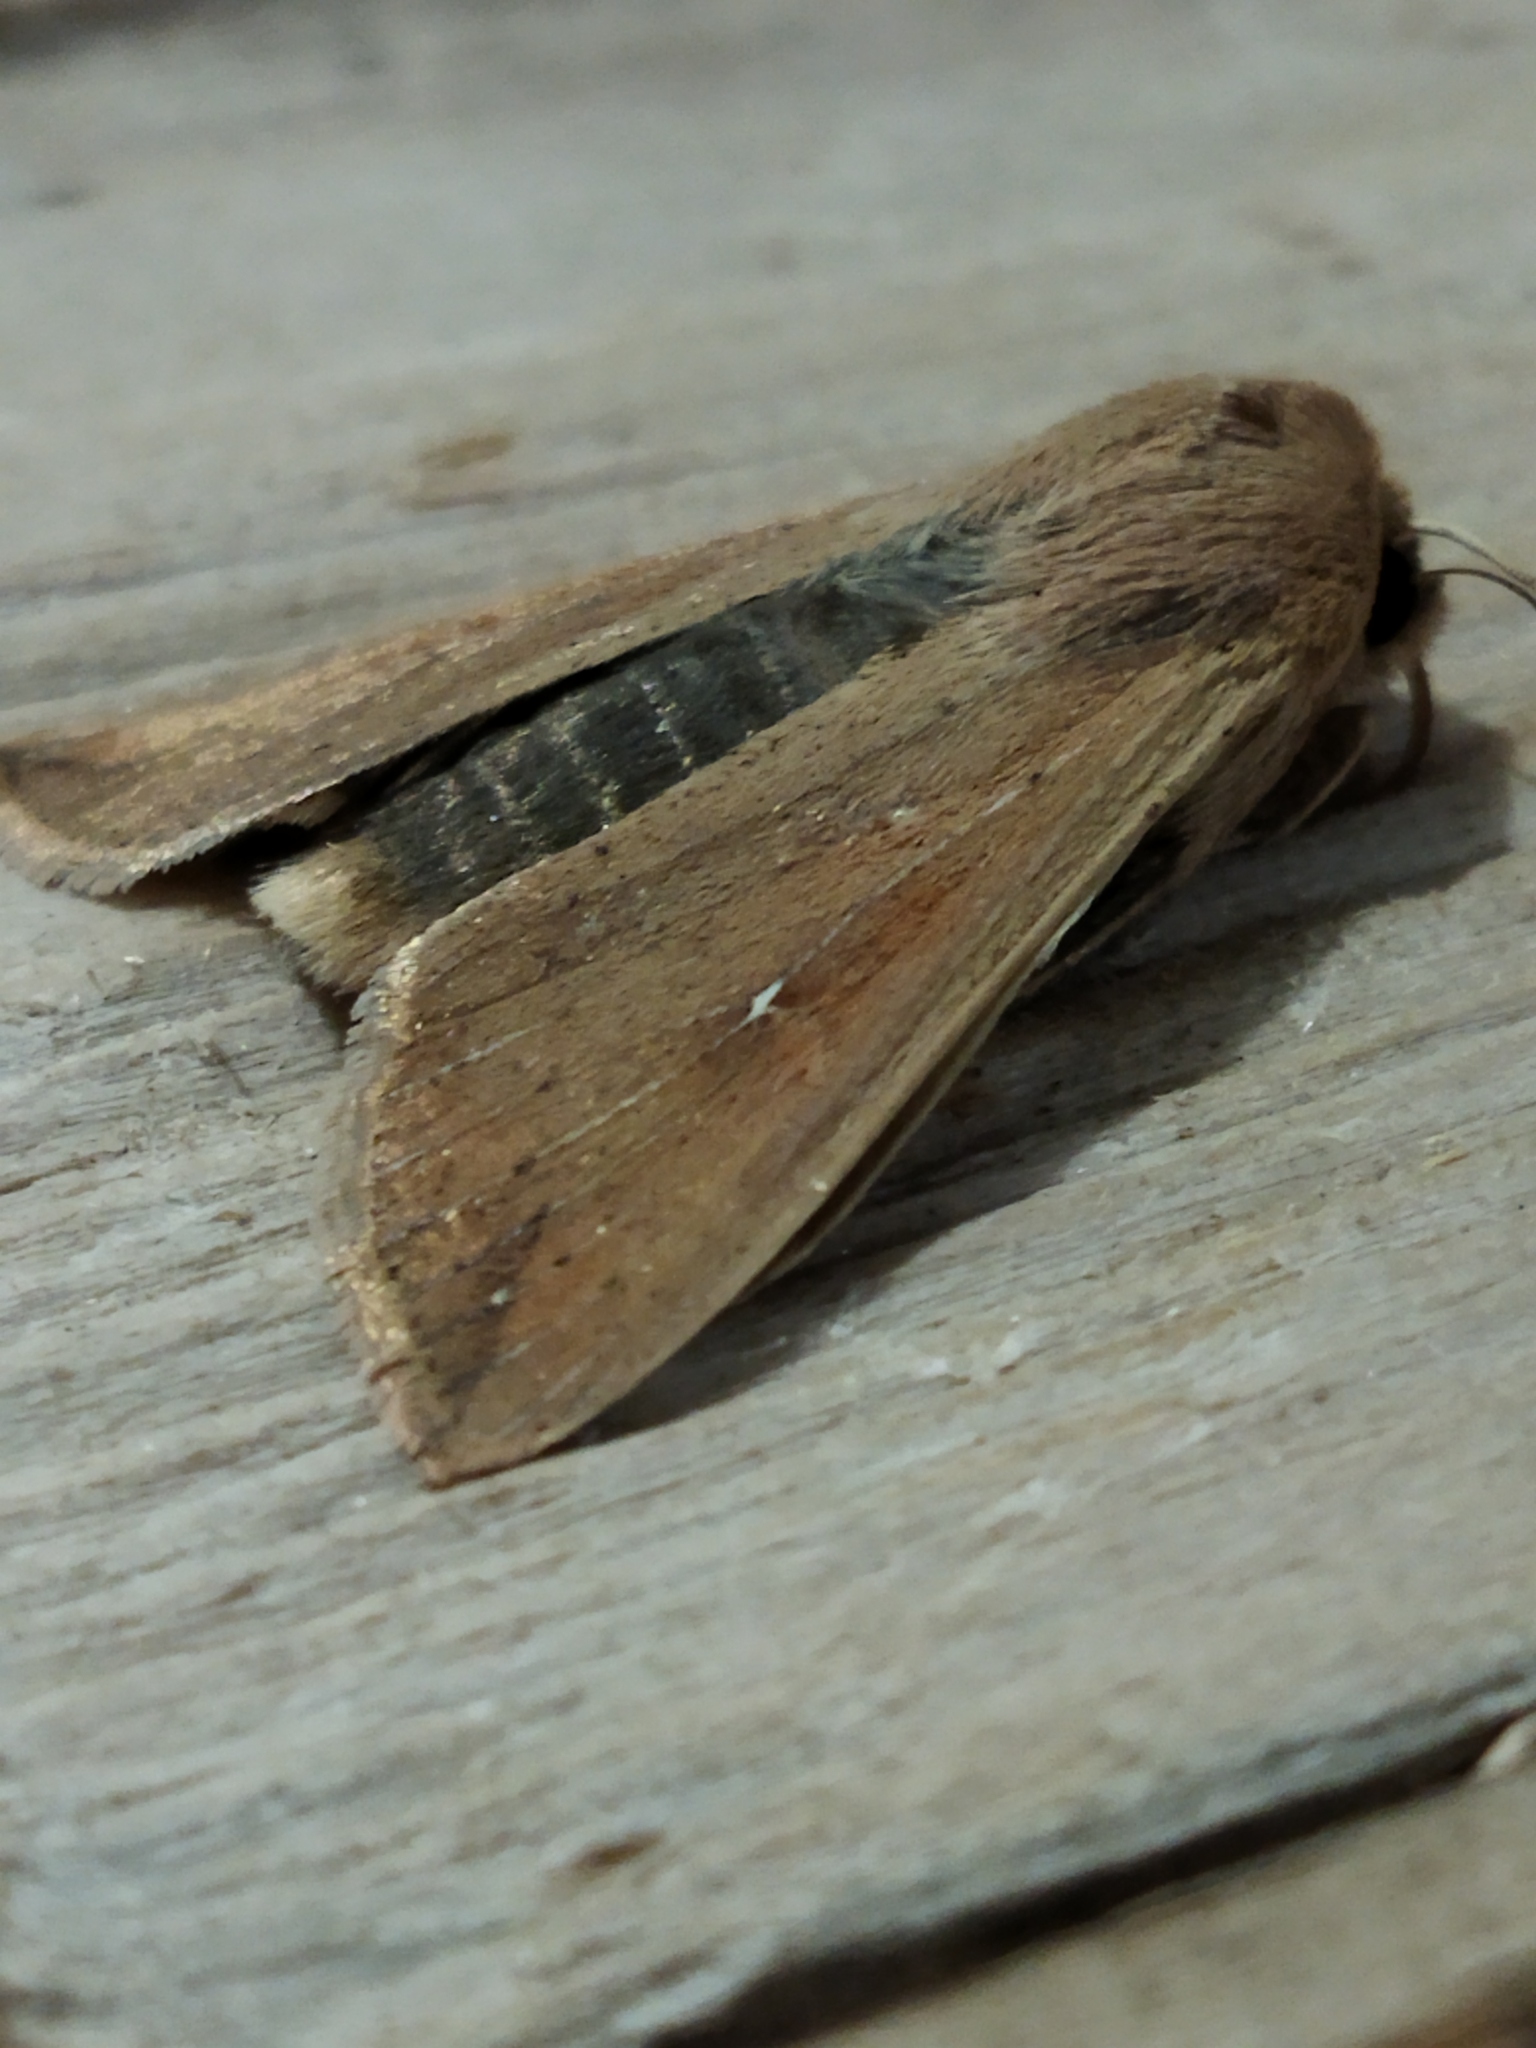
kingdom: Animalia
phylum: Arthropoda
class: Insecta
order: Lepidoptera
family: Noctuidae
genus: Mythimna
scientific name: Mythimna unipuncta
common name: White-speck
